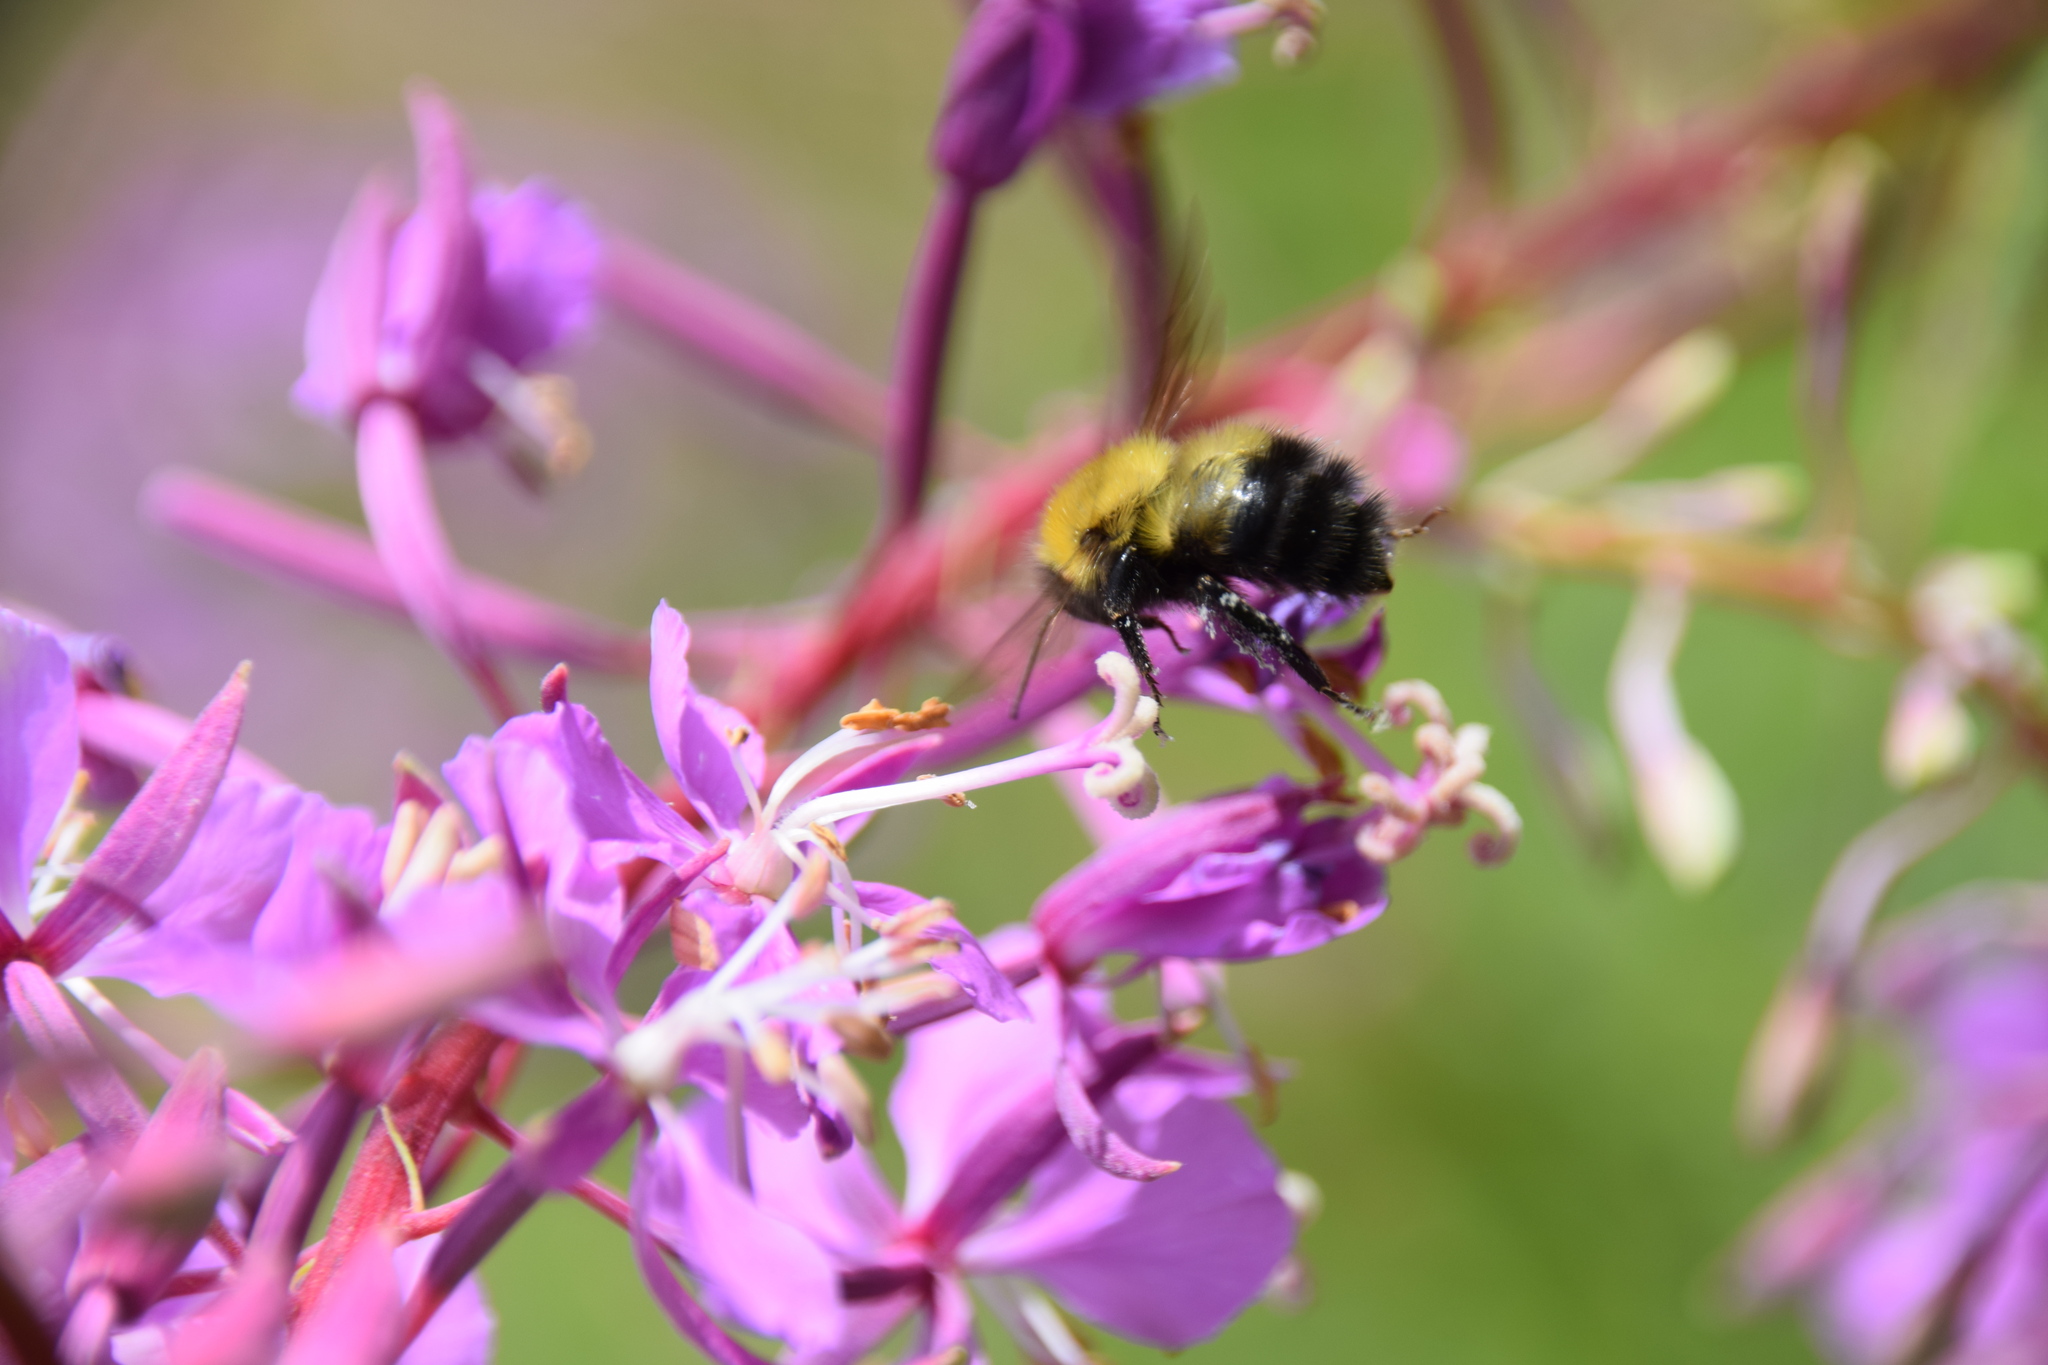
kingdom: Animalia
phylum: Arthropoda
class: Insecta
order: Hymenoptera
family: Apidae
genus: Bombus
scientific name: Bombus terricola
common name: Yellow-banded bumble bee
